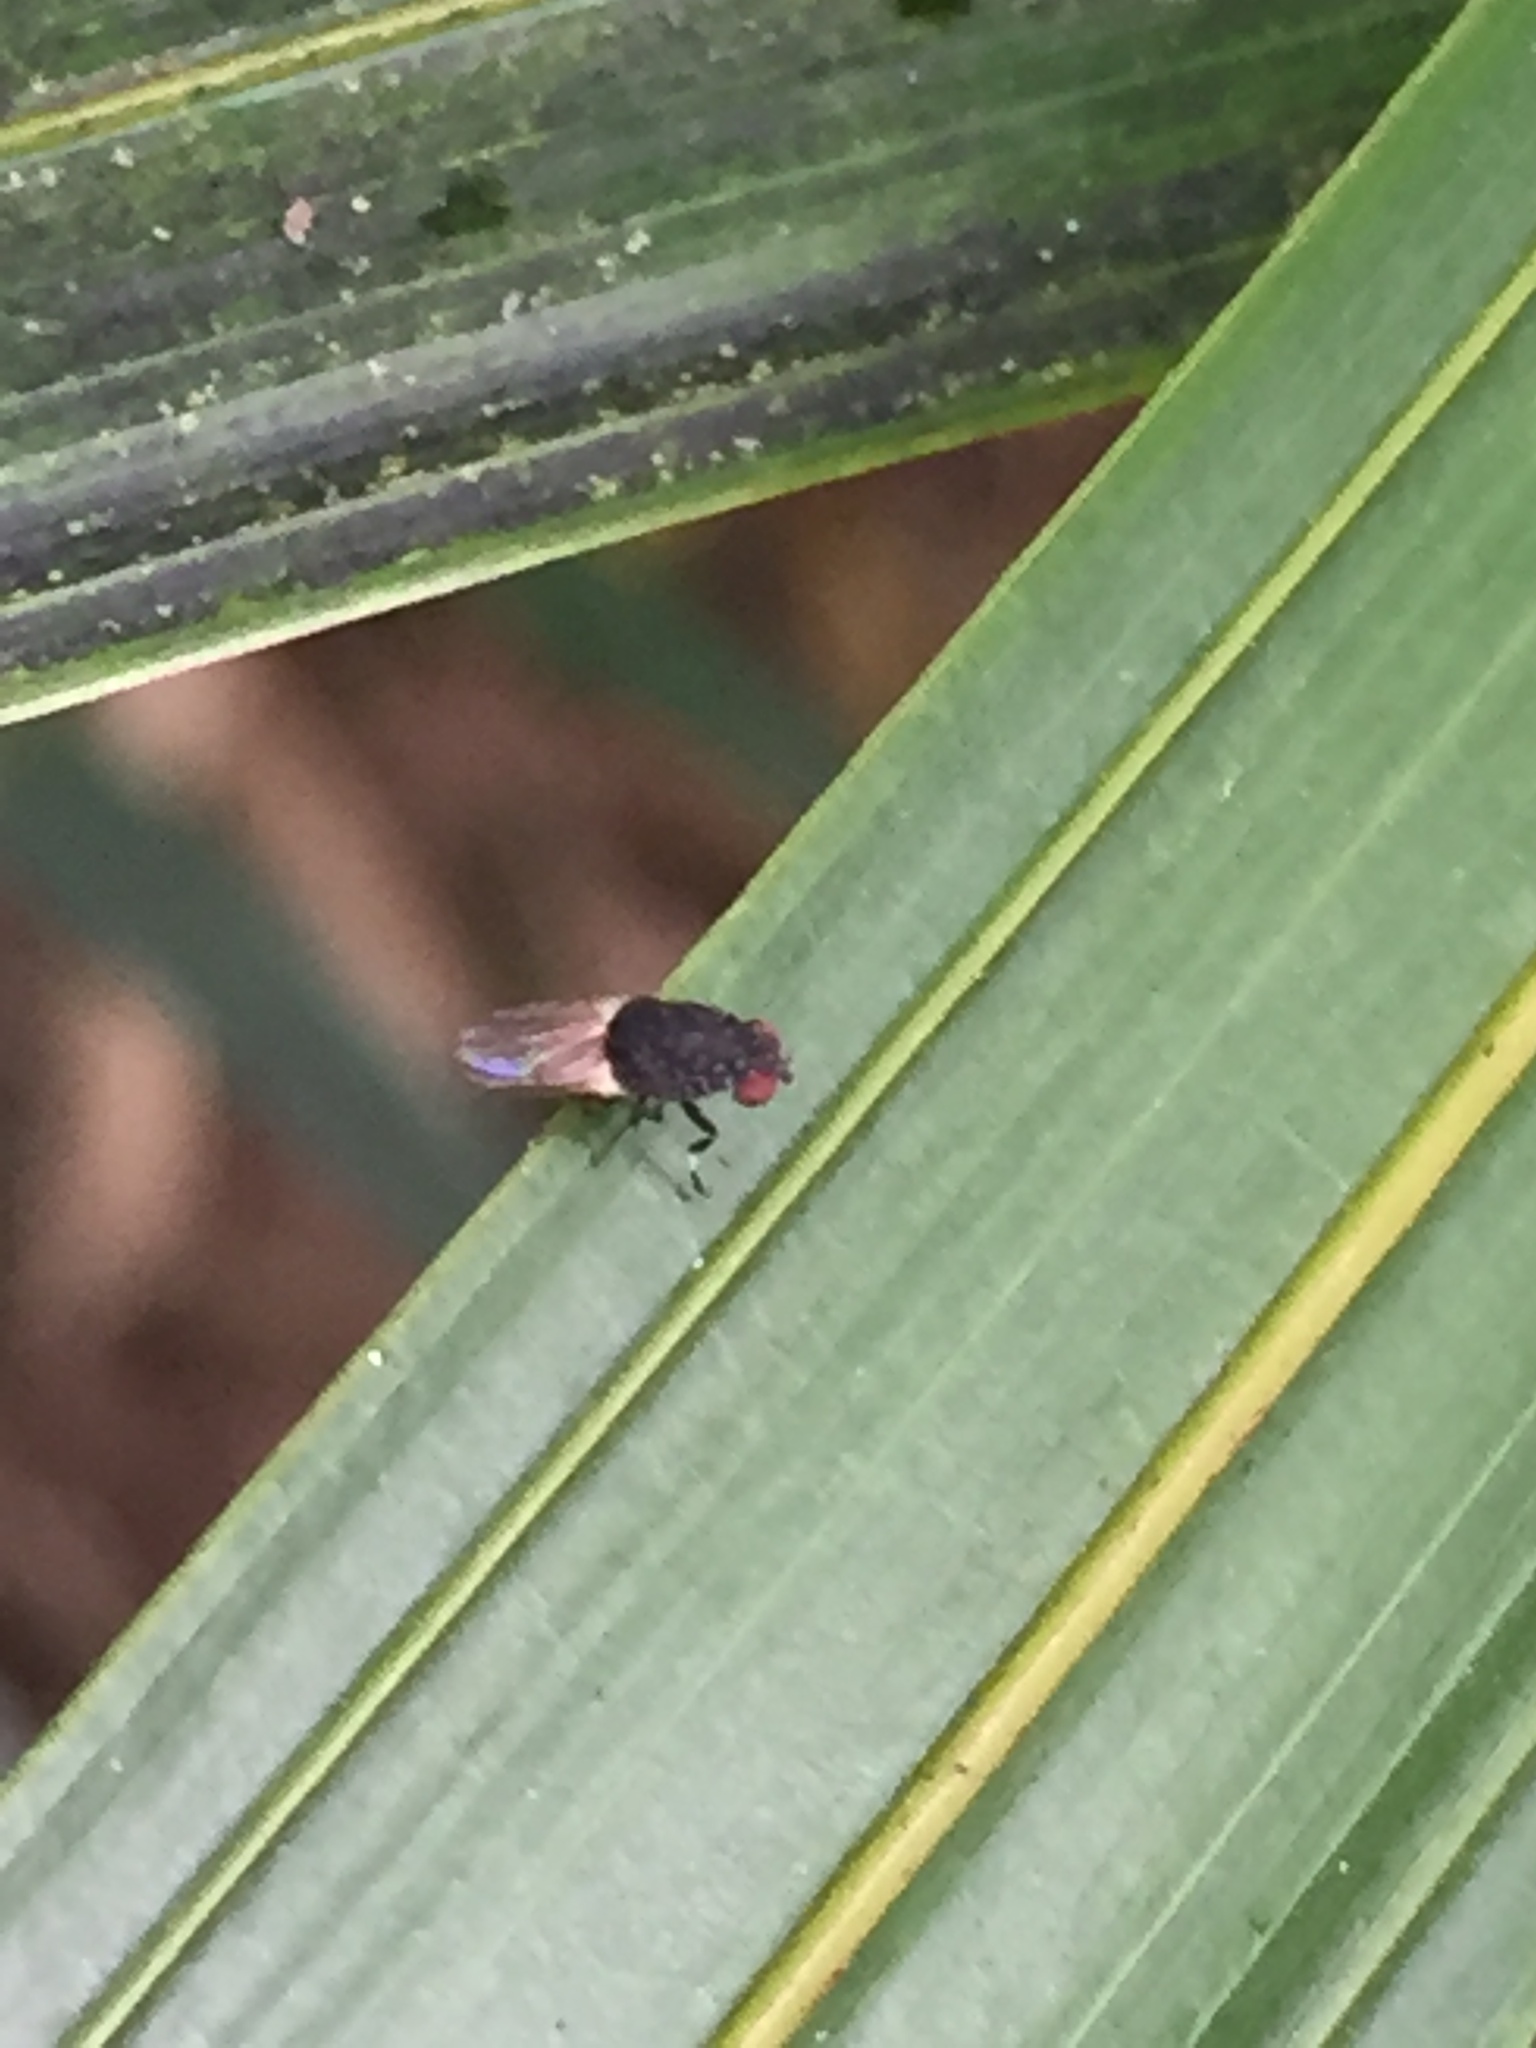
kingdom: Animalia
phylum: Arthropoda
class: Insecta
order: Diptera
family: Heleomyzidae
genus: Allophylina
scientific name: Allophylina albitarsis
